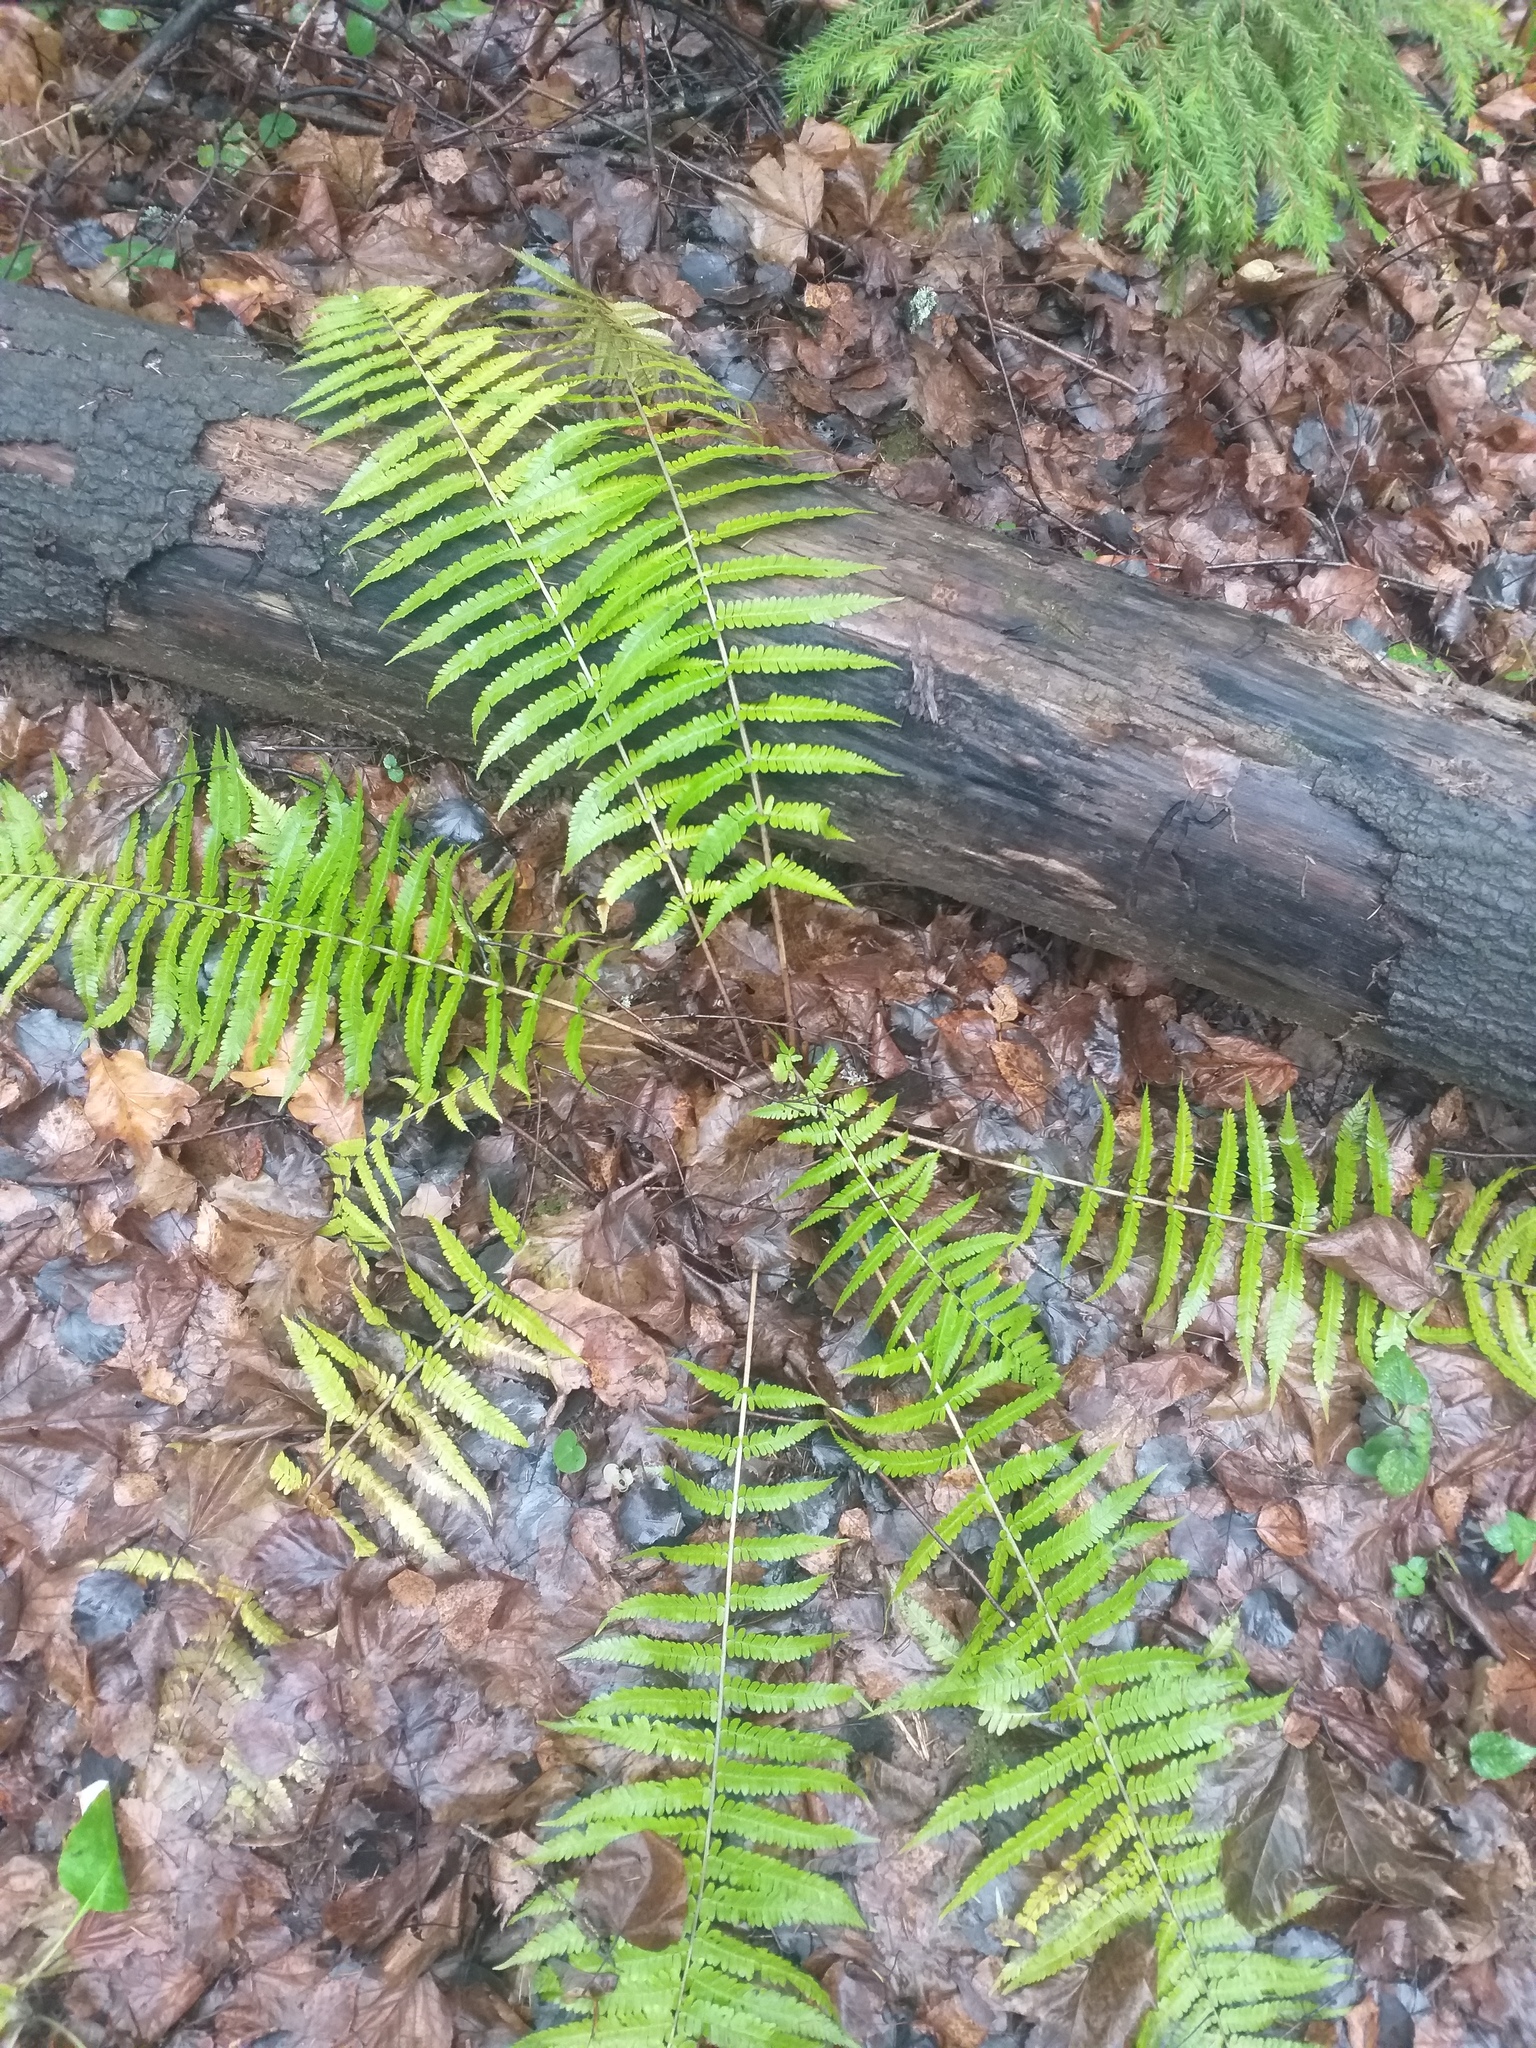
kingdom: Plantae
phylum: Tracheophyta
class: Polypodiopsida
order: Polypodiales
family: Dryopteridaceae
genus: Dryopteris
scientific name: Dryopteris filix-mas
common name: Male fern
